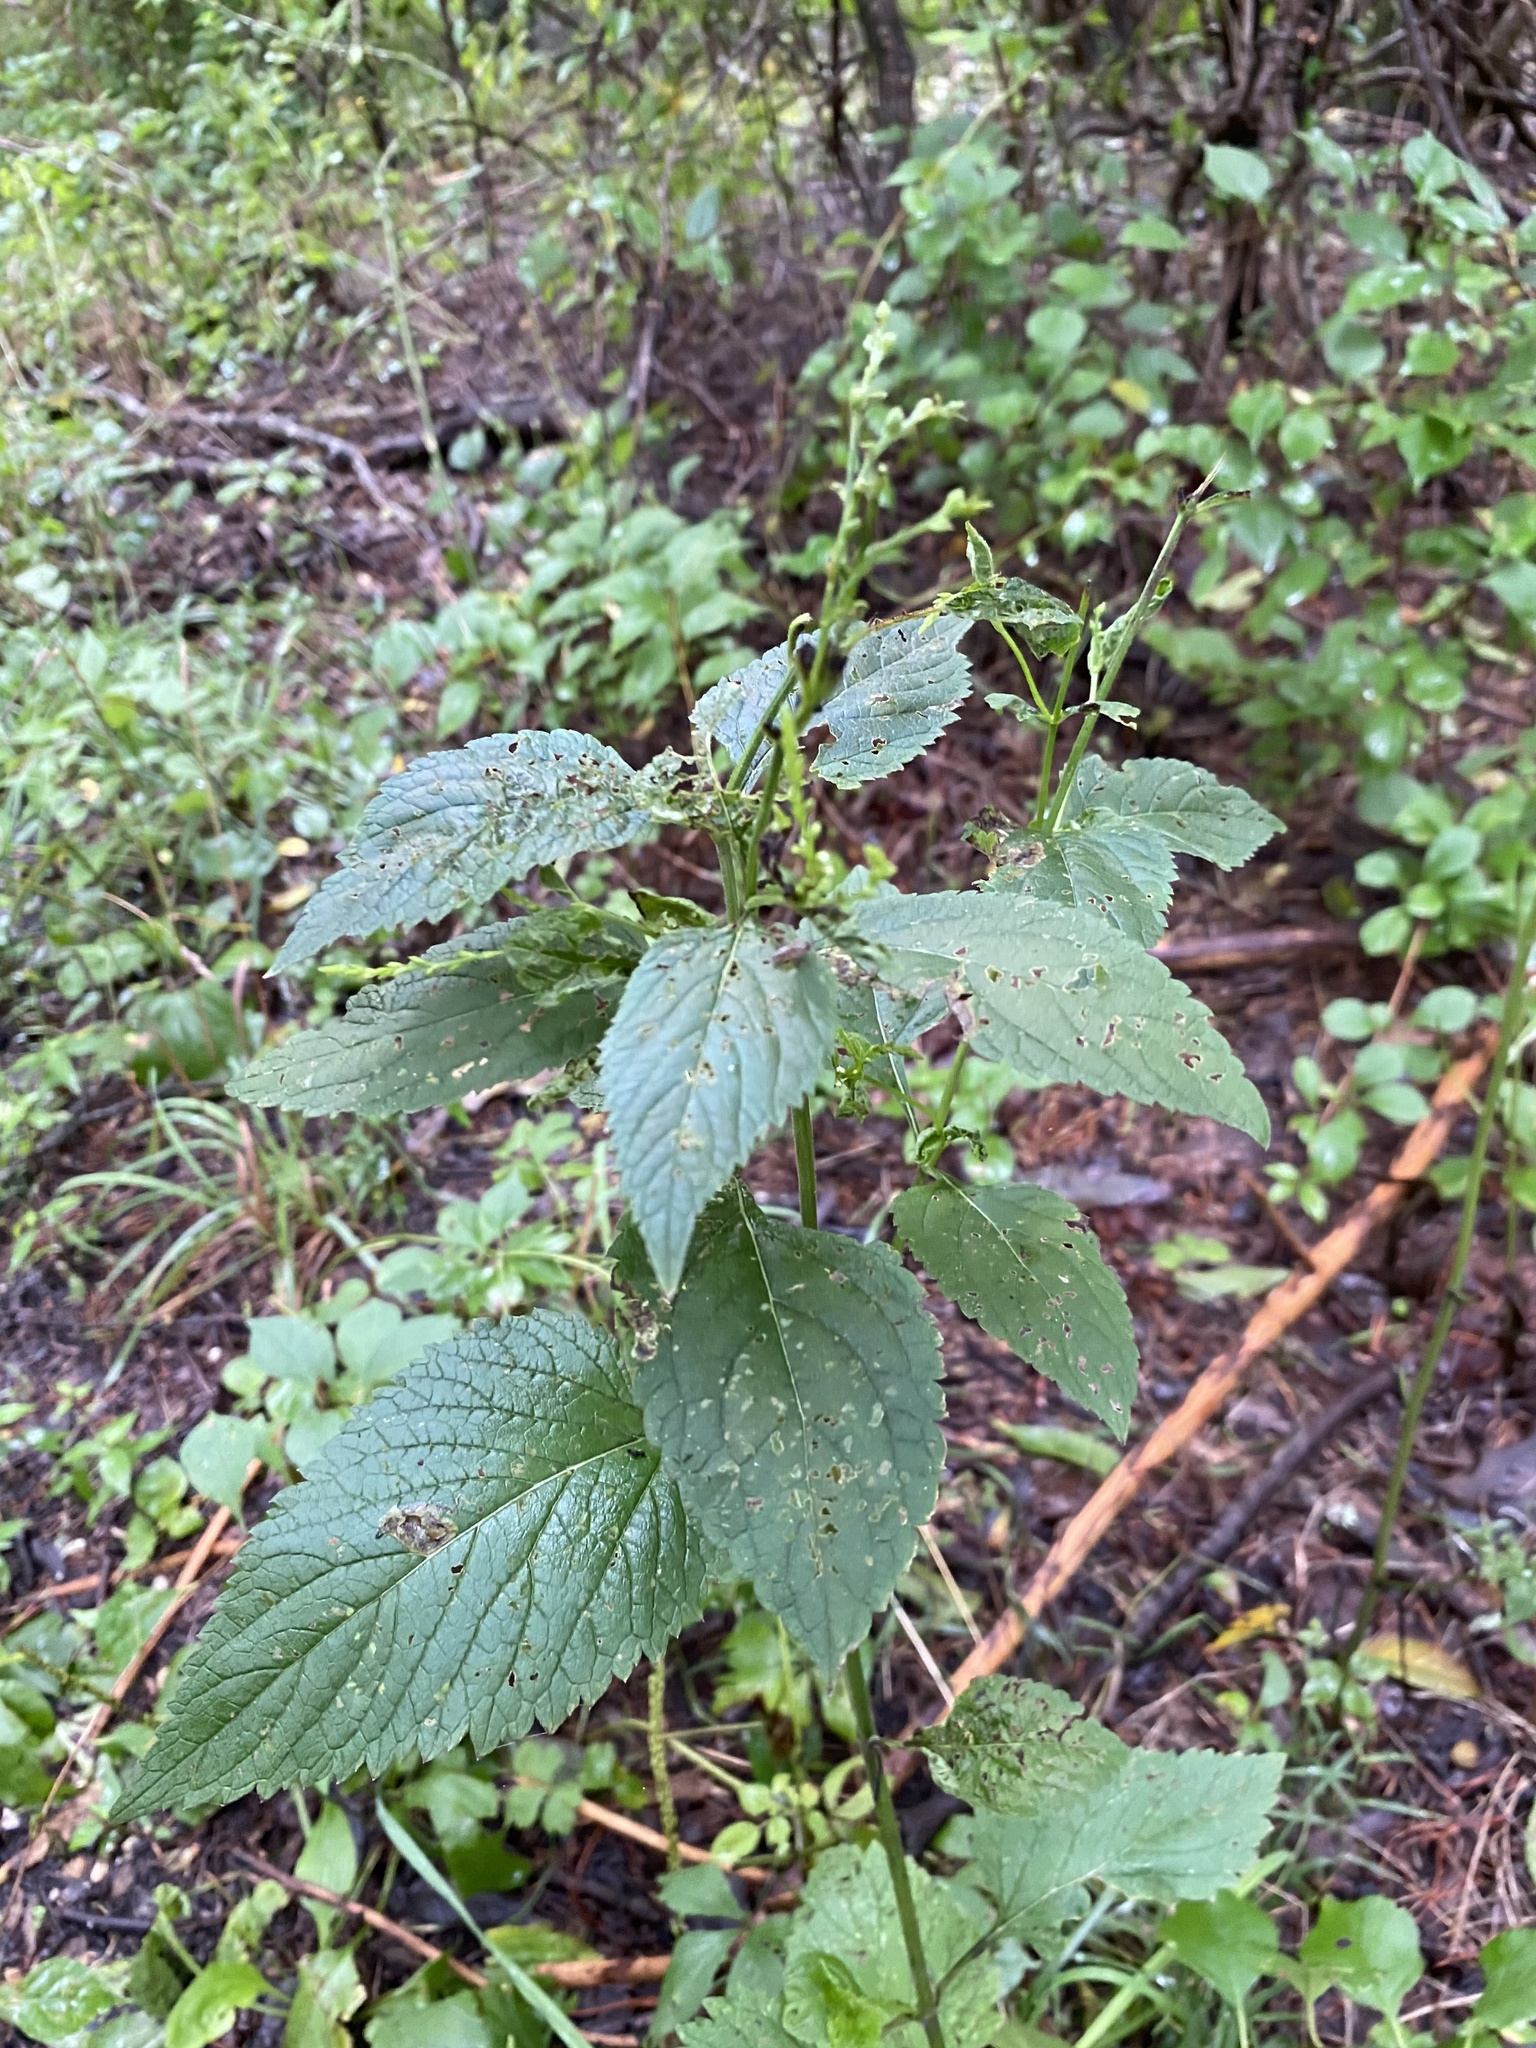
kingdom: Plantae
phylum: Tracheophyta
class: Magnoliopsida
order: Lamiales
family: Verbenaceae
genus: Verbena
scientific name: Verbena urticifolia
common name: Nettle-leaved vervain
